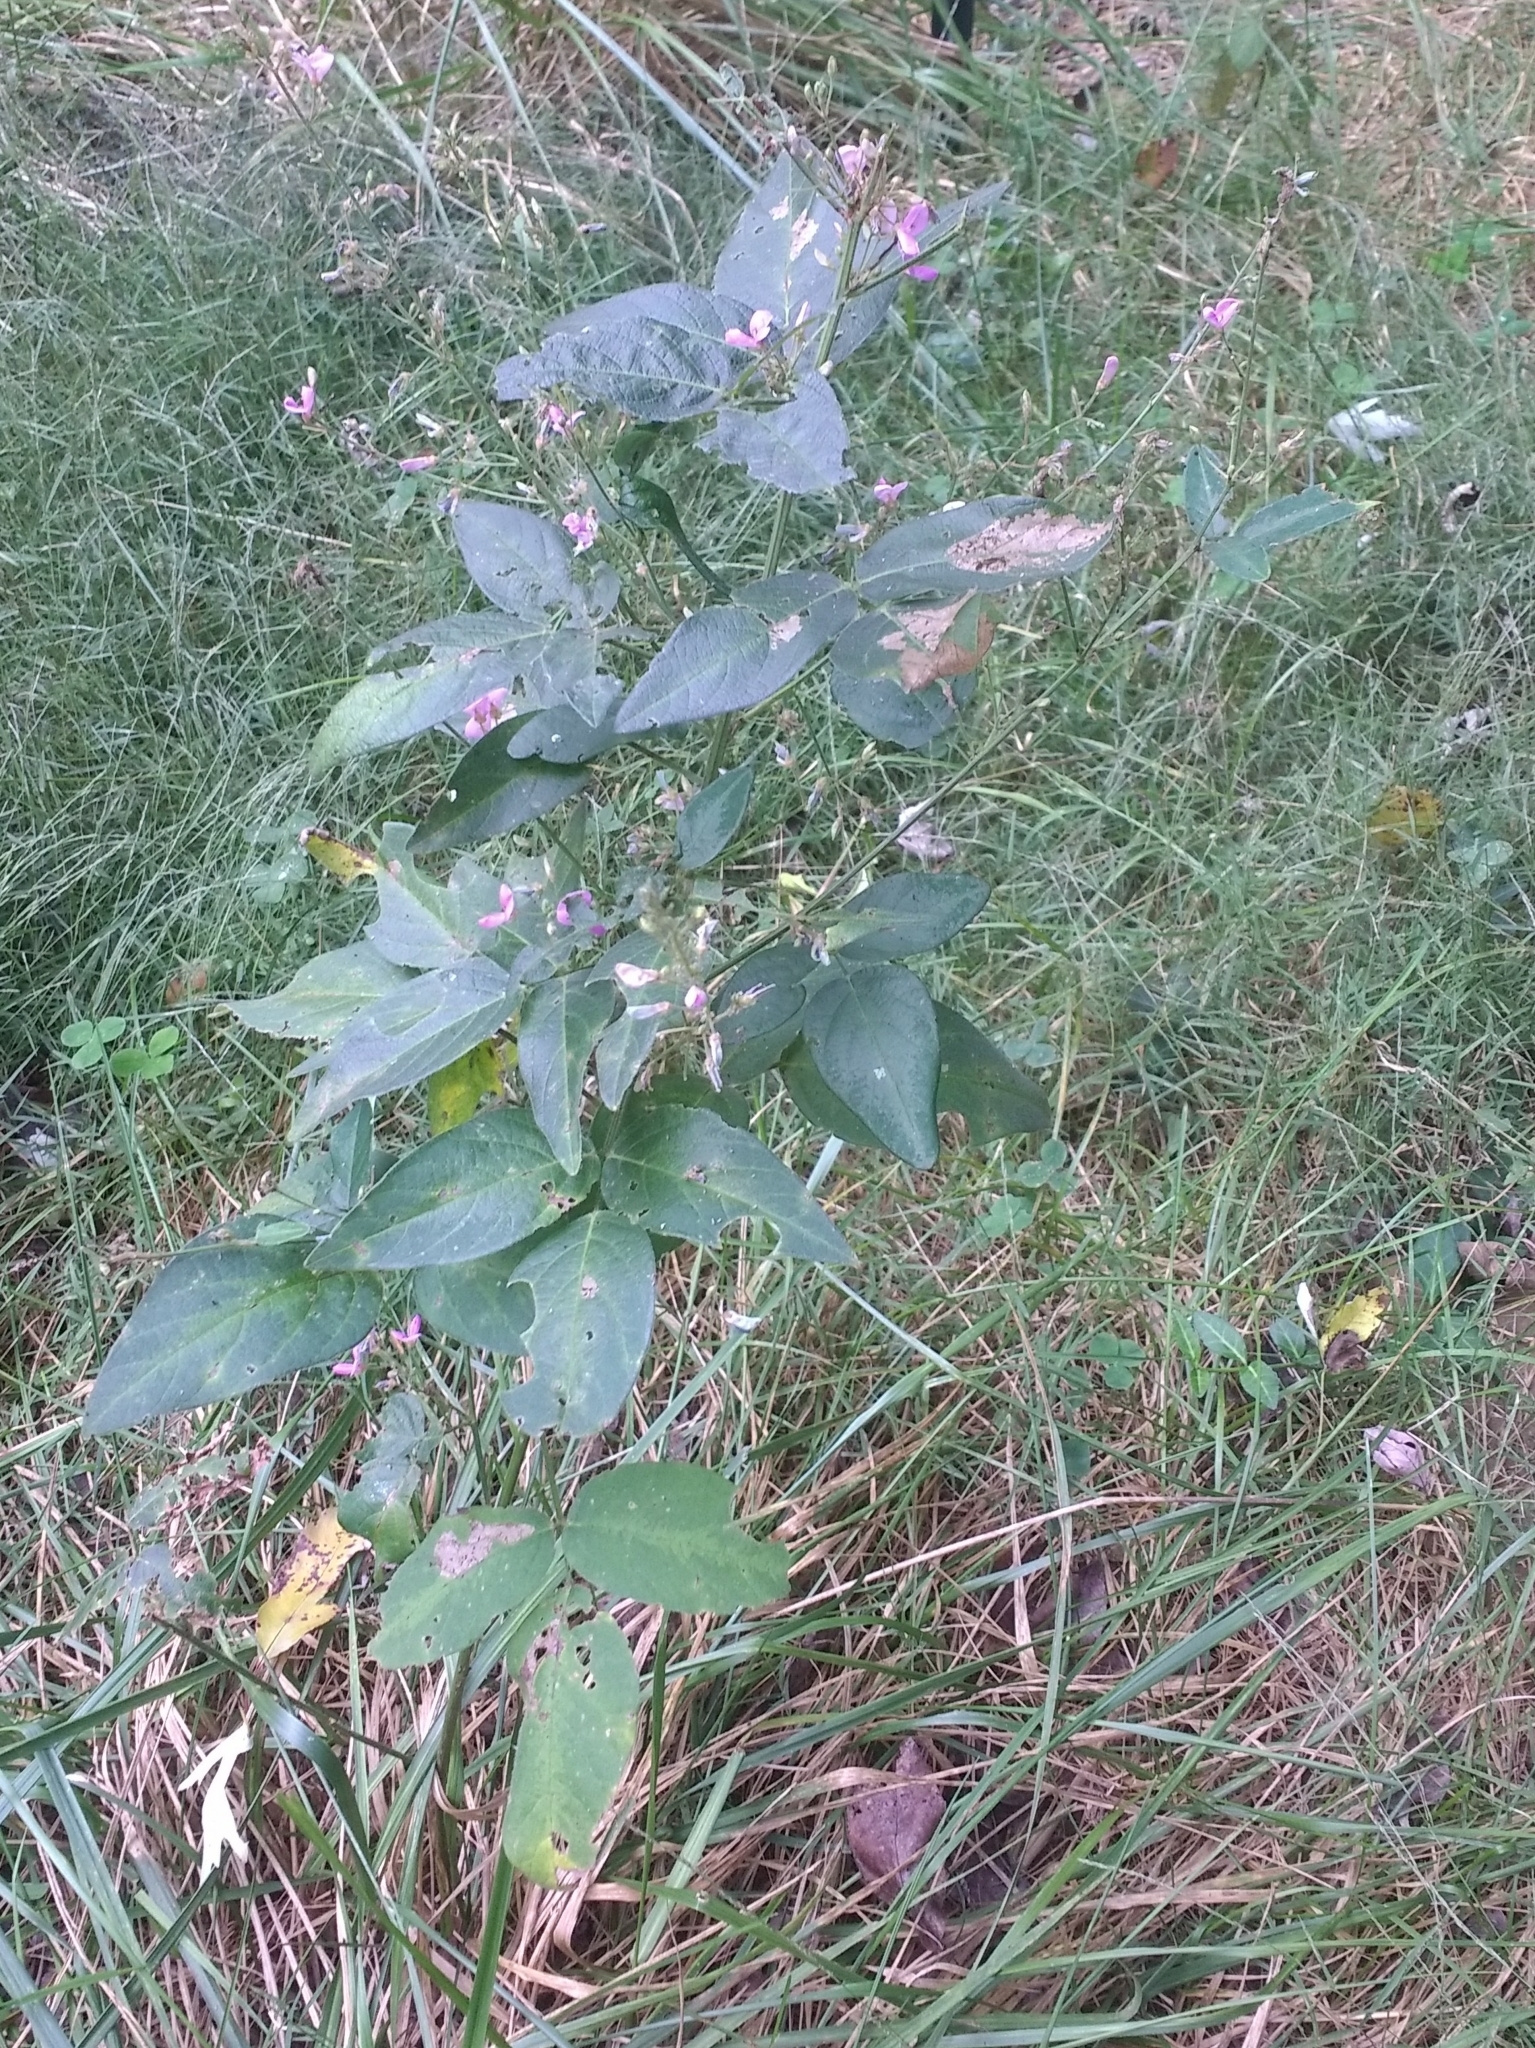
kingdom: Plantae
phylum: Tracheophyta
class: Magnoliopsida
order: Fabales
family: Fabaceae
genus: Desmodium
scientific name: Desmodium perplexum
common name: Perplexed tick trefoil
